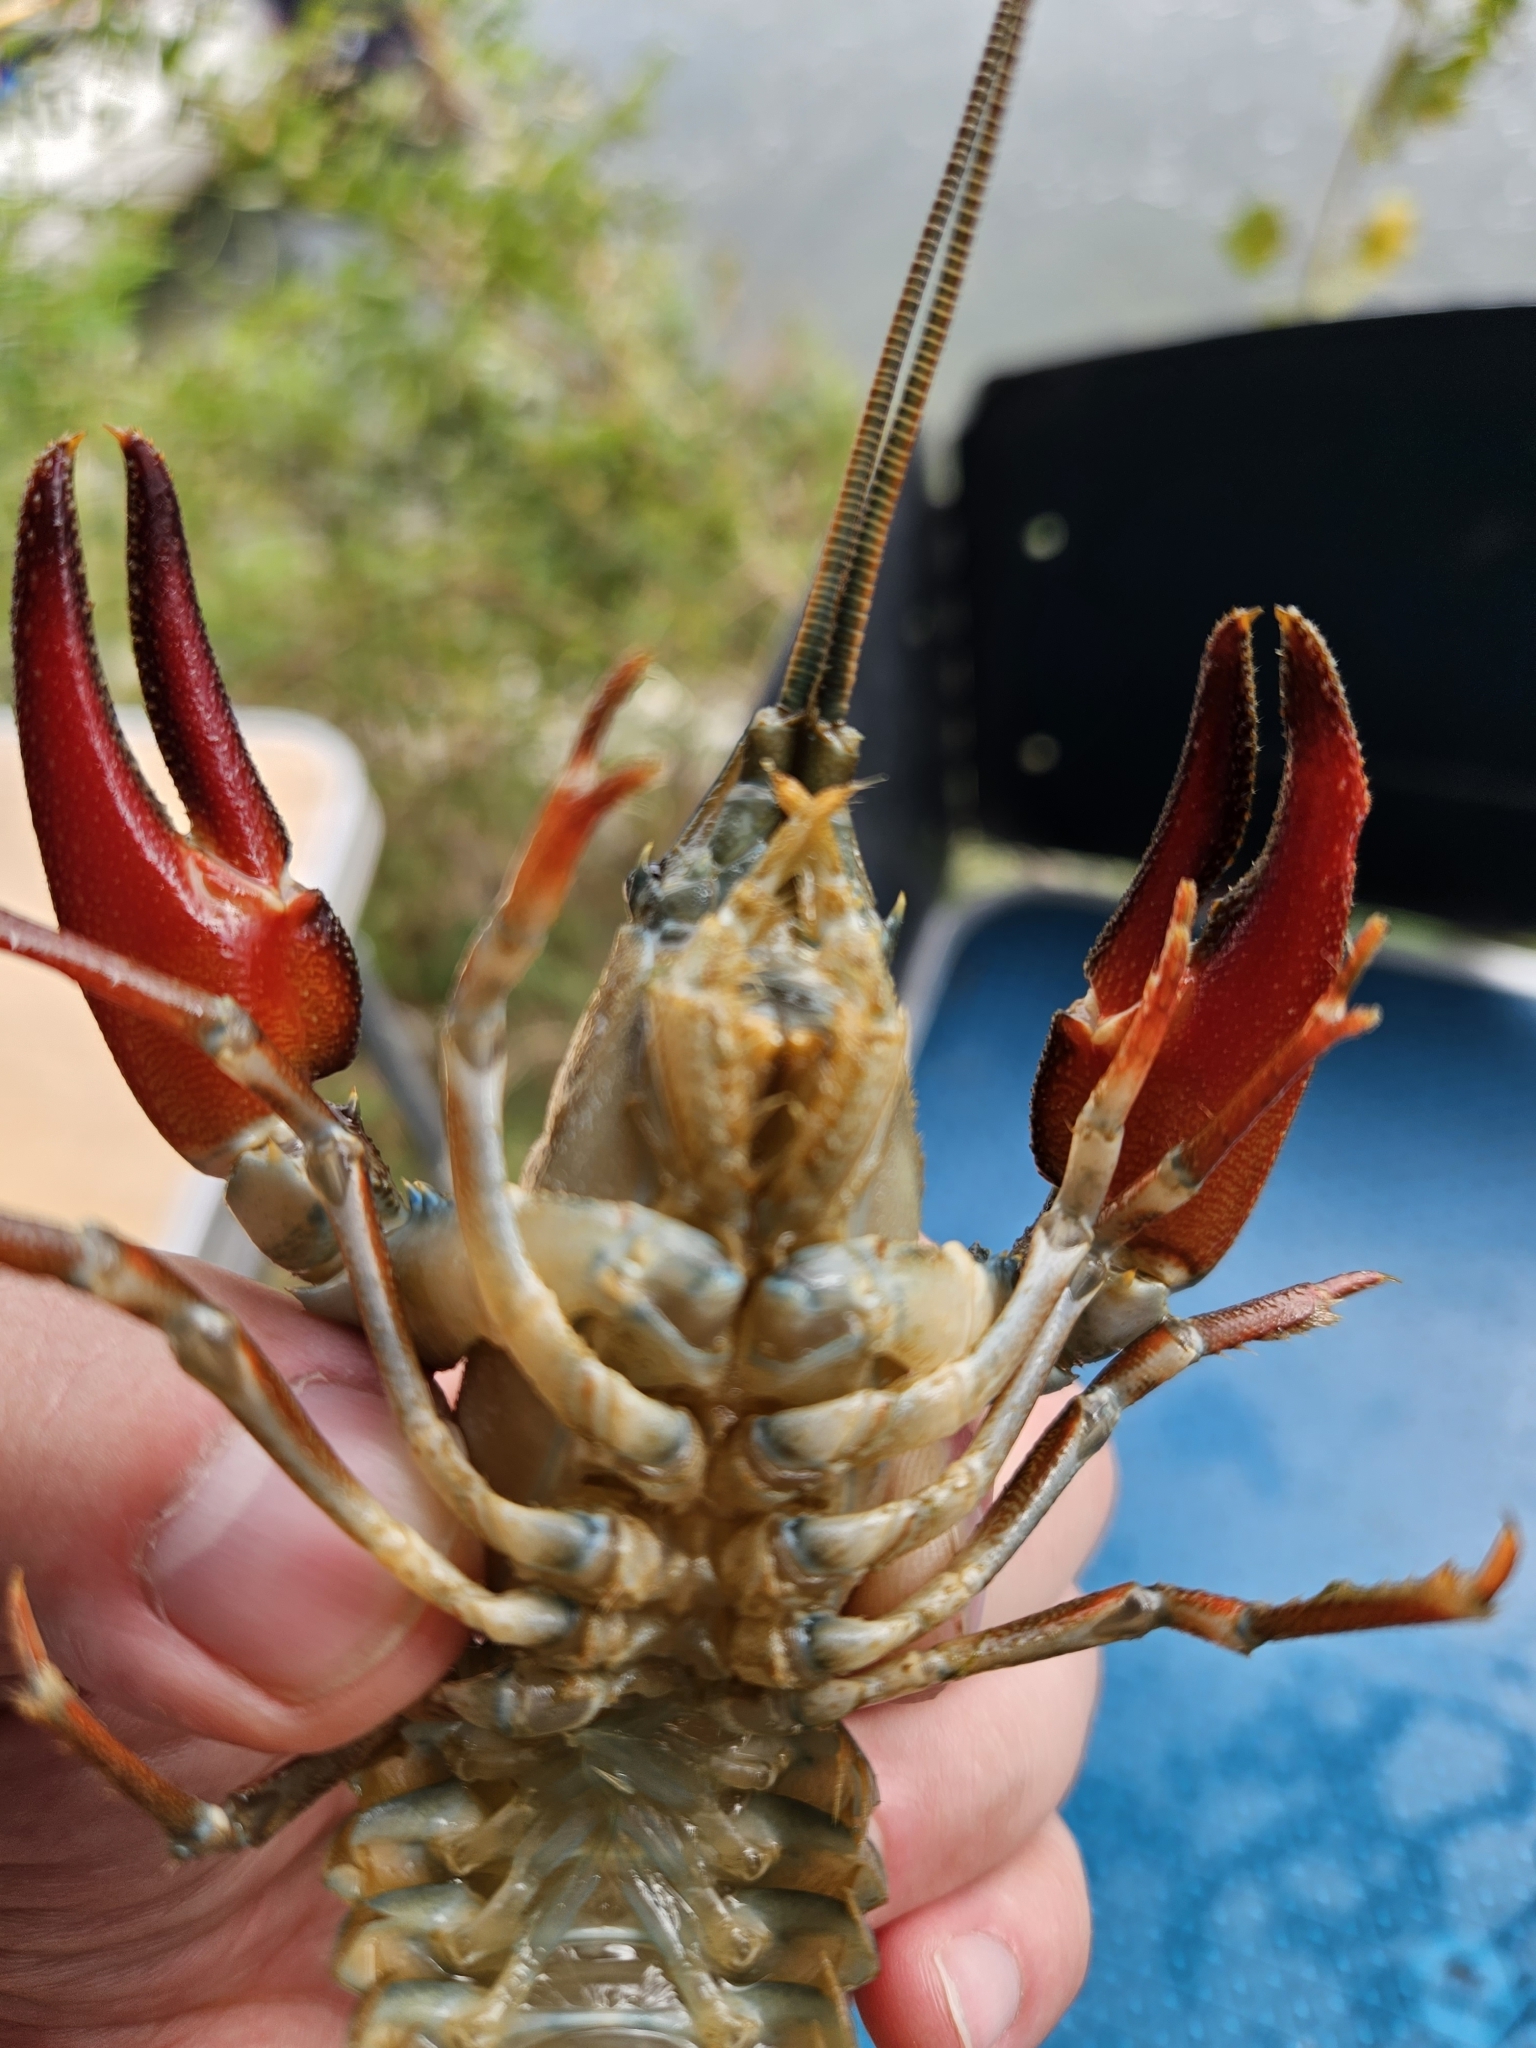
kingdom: Animalia
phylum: Arthropoda
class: Malacostraca
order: Decapoda
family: Astacidae
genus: Pacifastacus
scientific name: Pacifastacus leniusculus
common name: Signal crayfish
